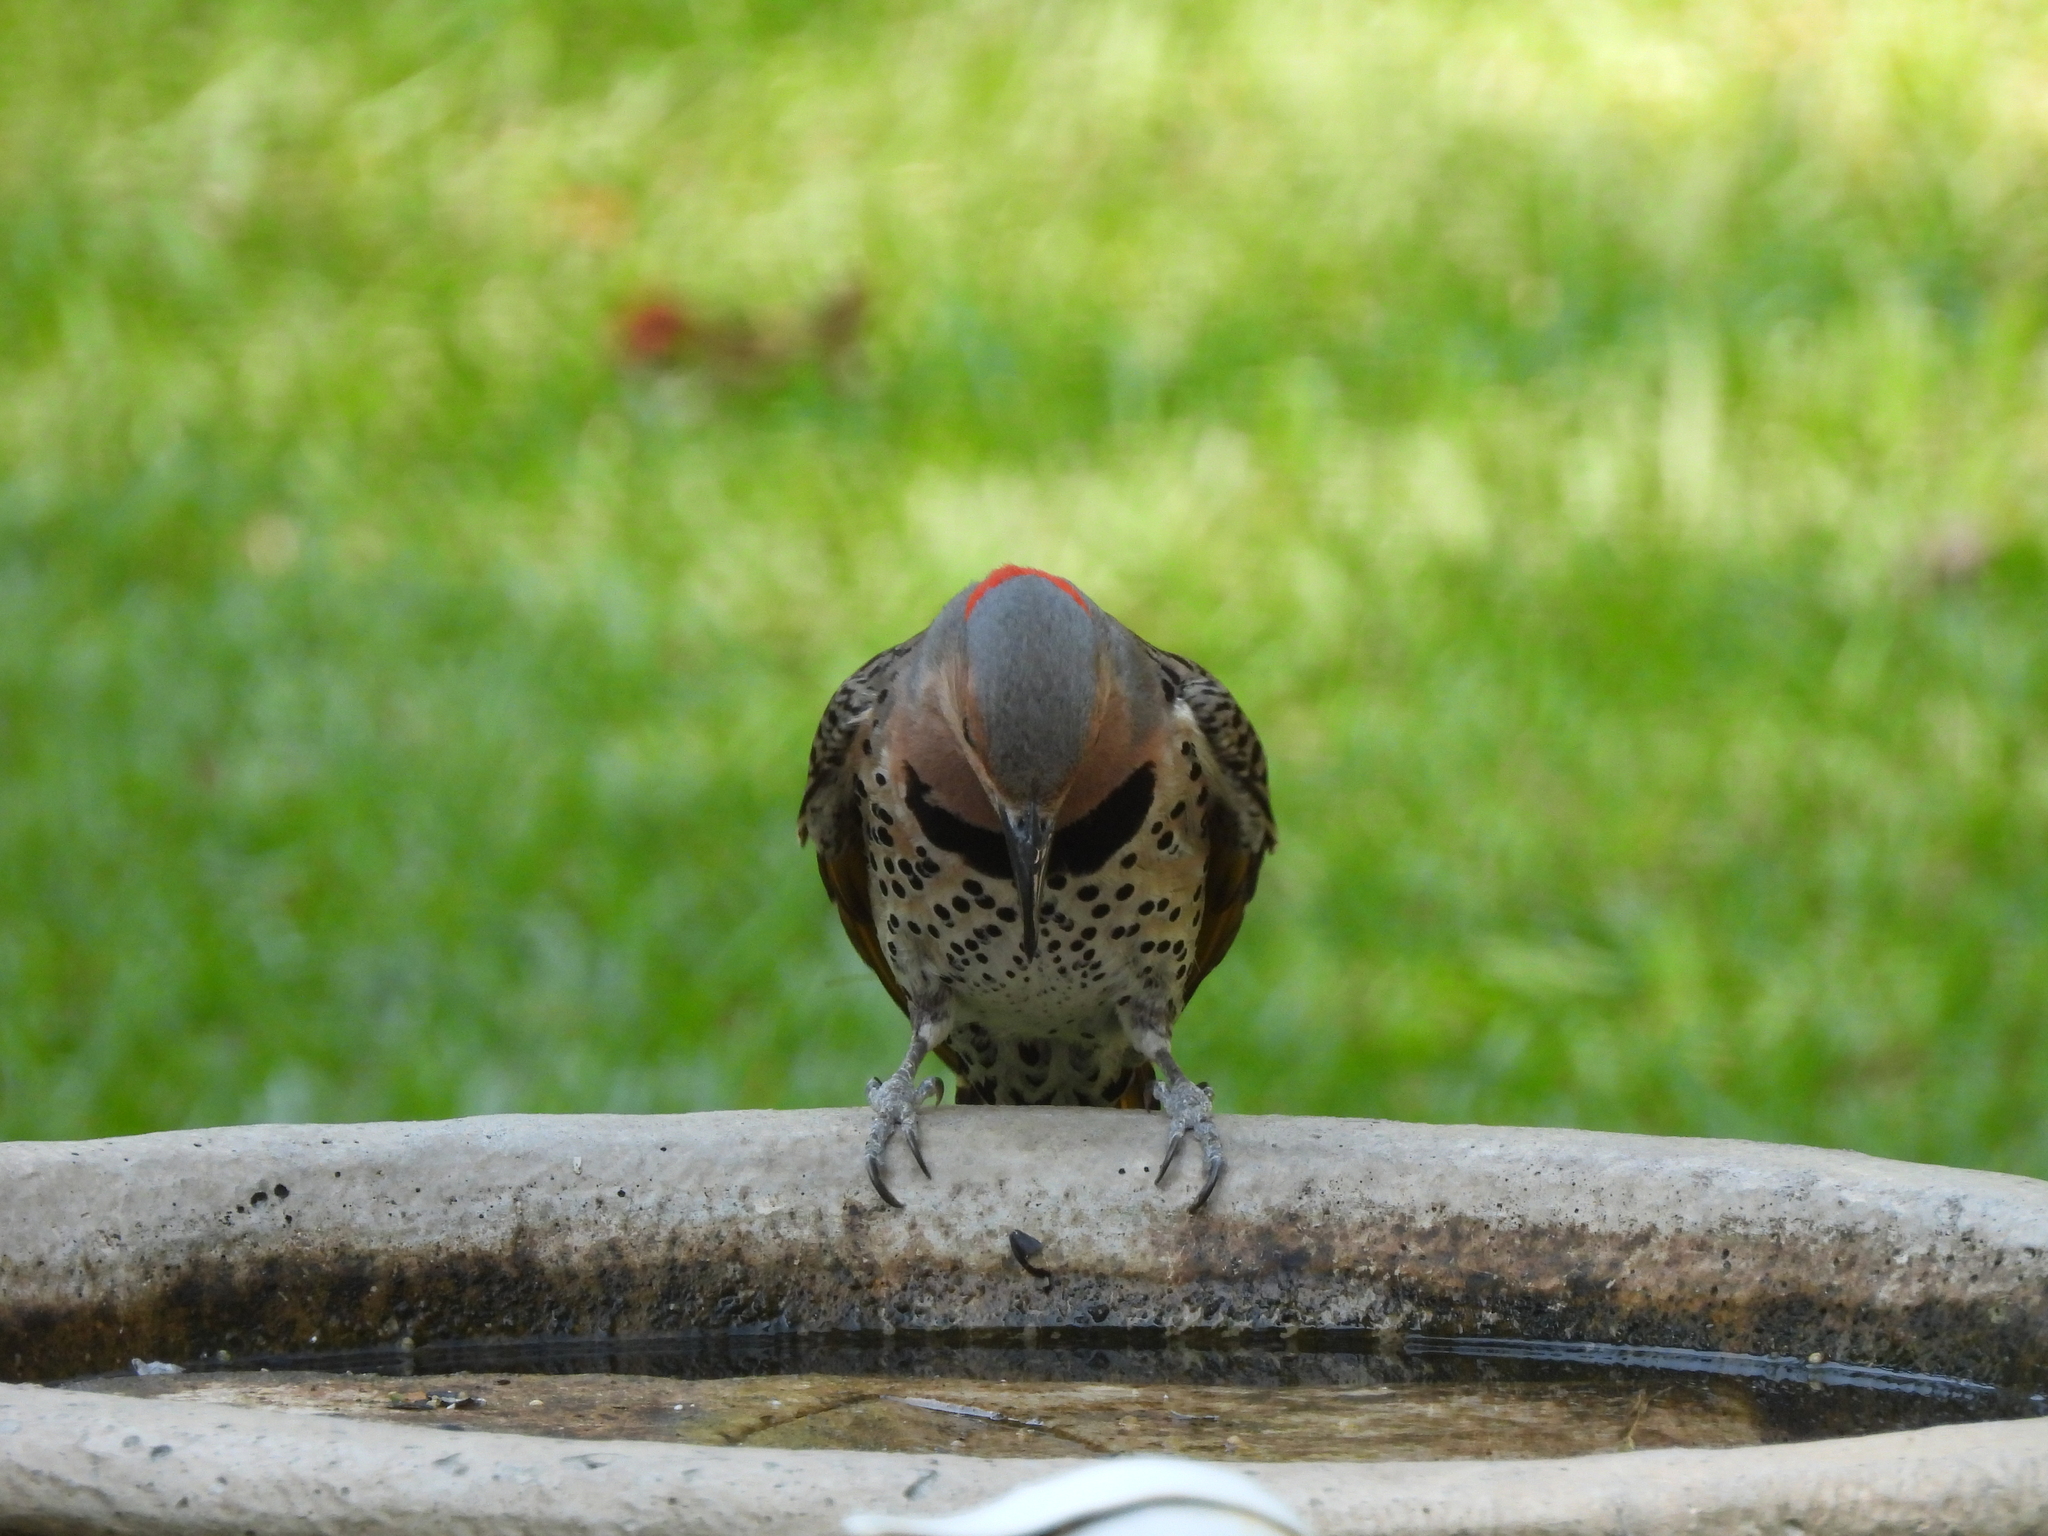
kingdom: Animalia
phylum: Chordata
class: Aves
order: Piciformes
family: Picidae
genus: Colaptes
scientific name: Colaptes auratus
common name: Northern flicker
